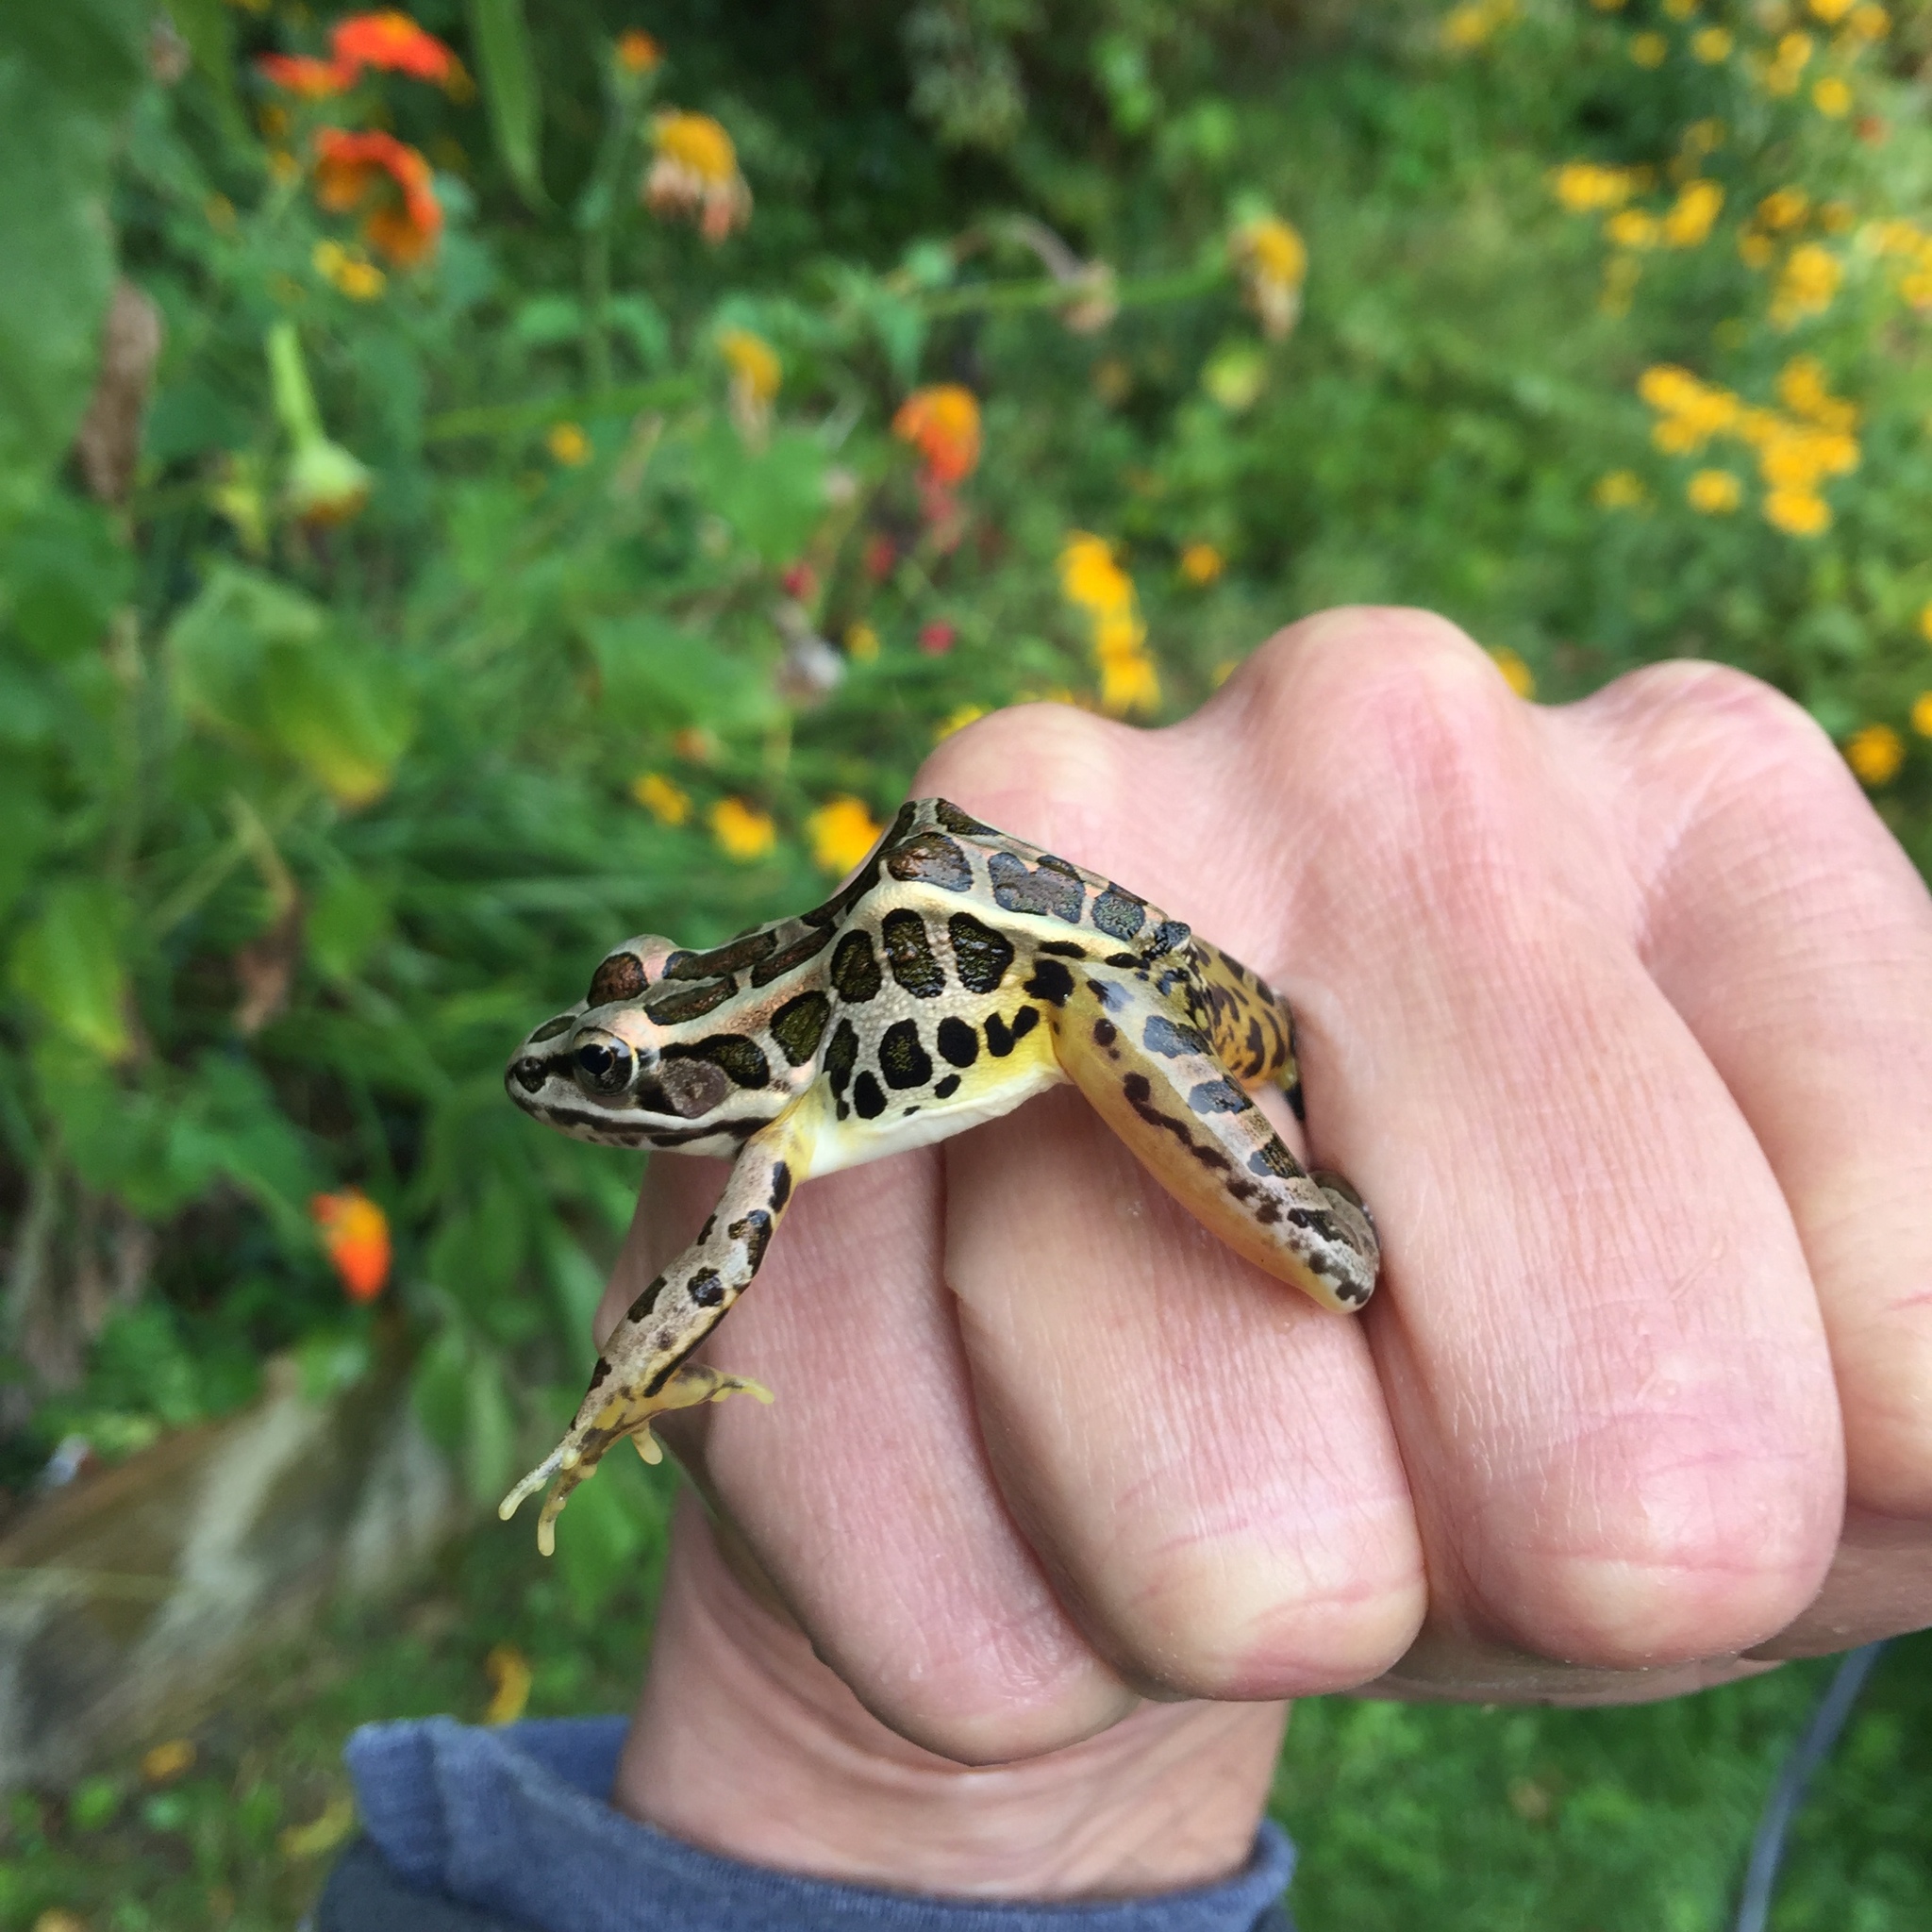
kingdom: Animalia
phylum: Chordata
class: Amphibia
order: Anura
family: Ranidae
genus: Lithobates
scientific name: Lithobates palustris
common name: Pickerel frog
